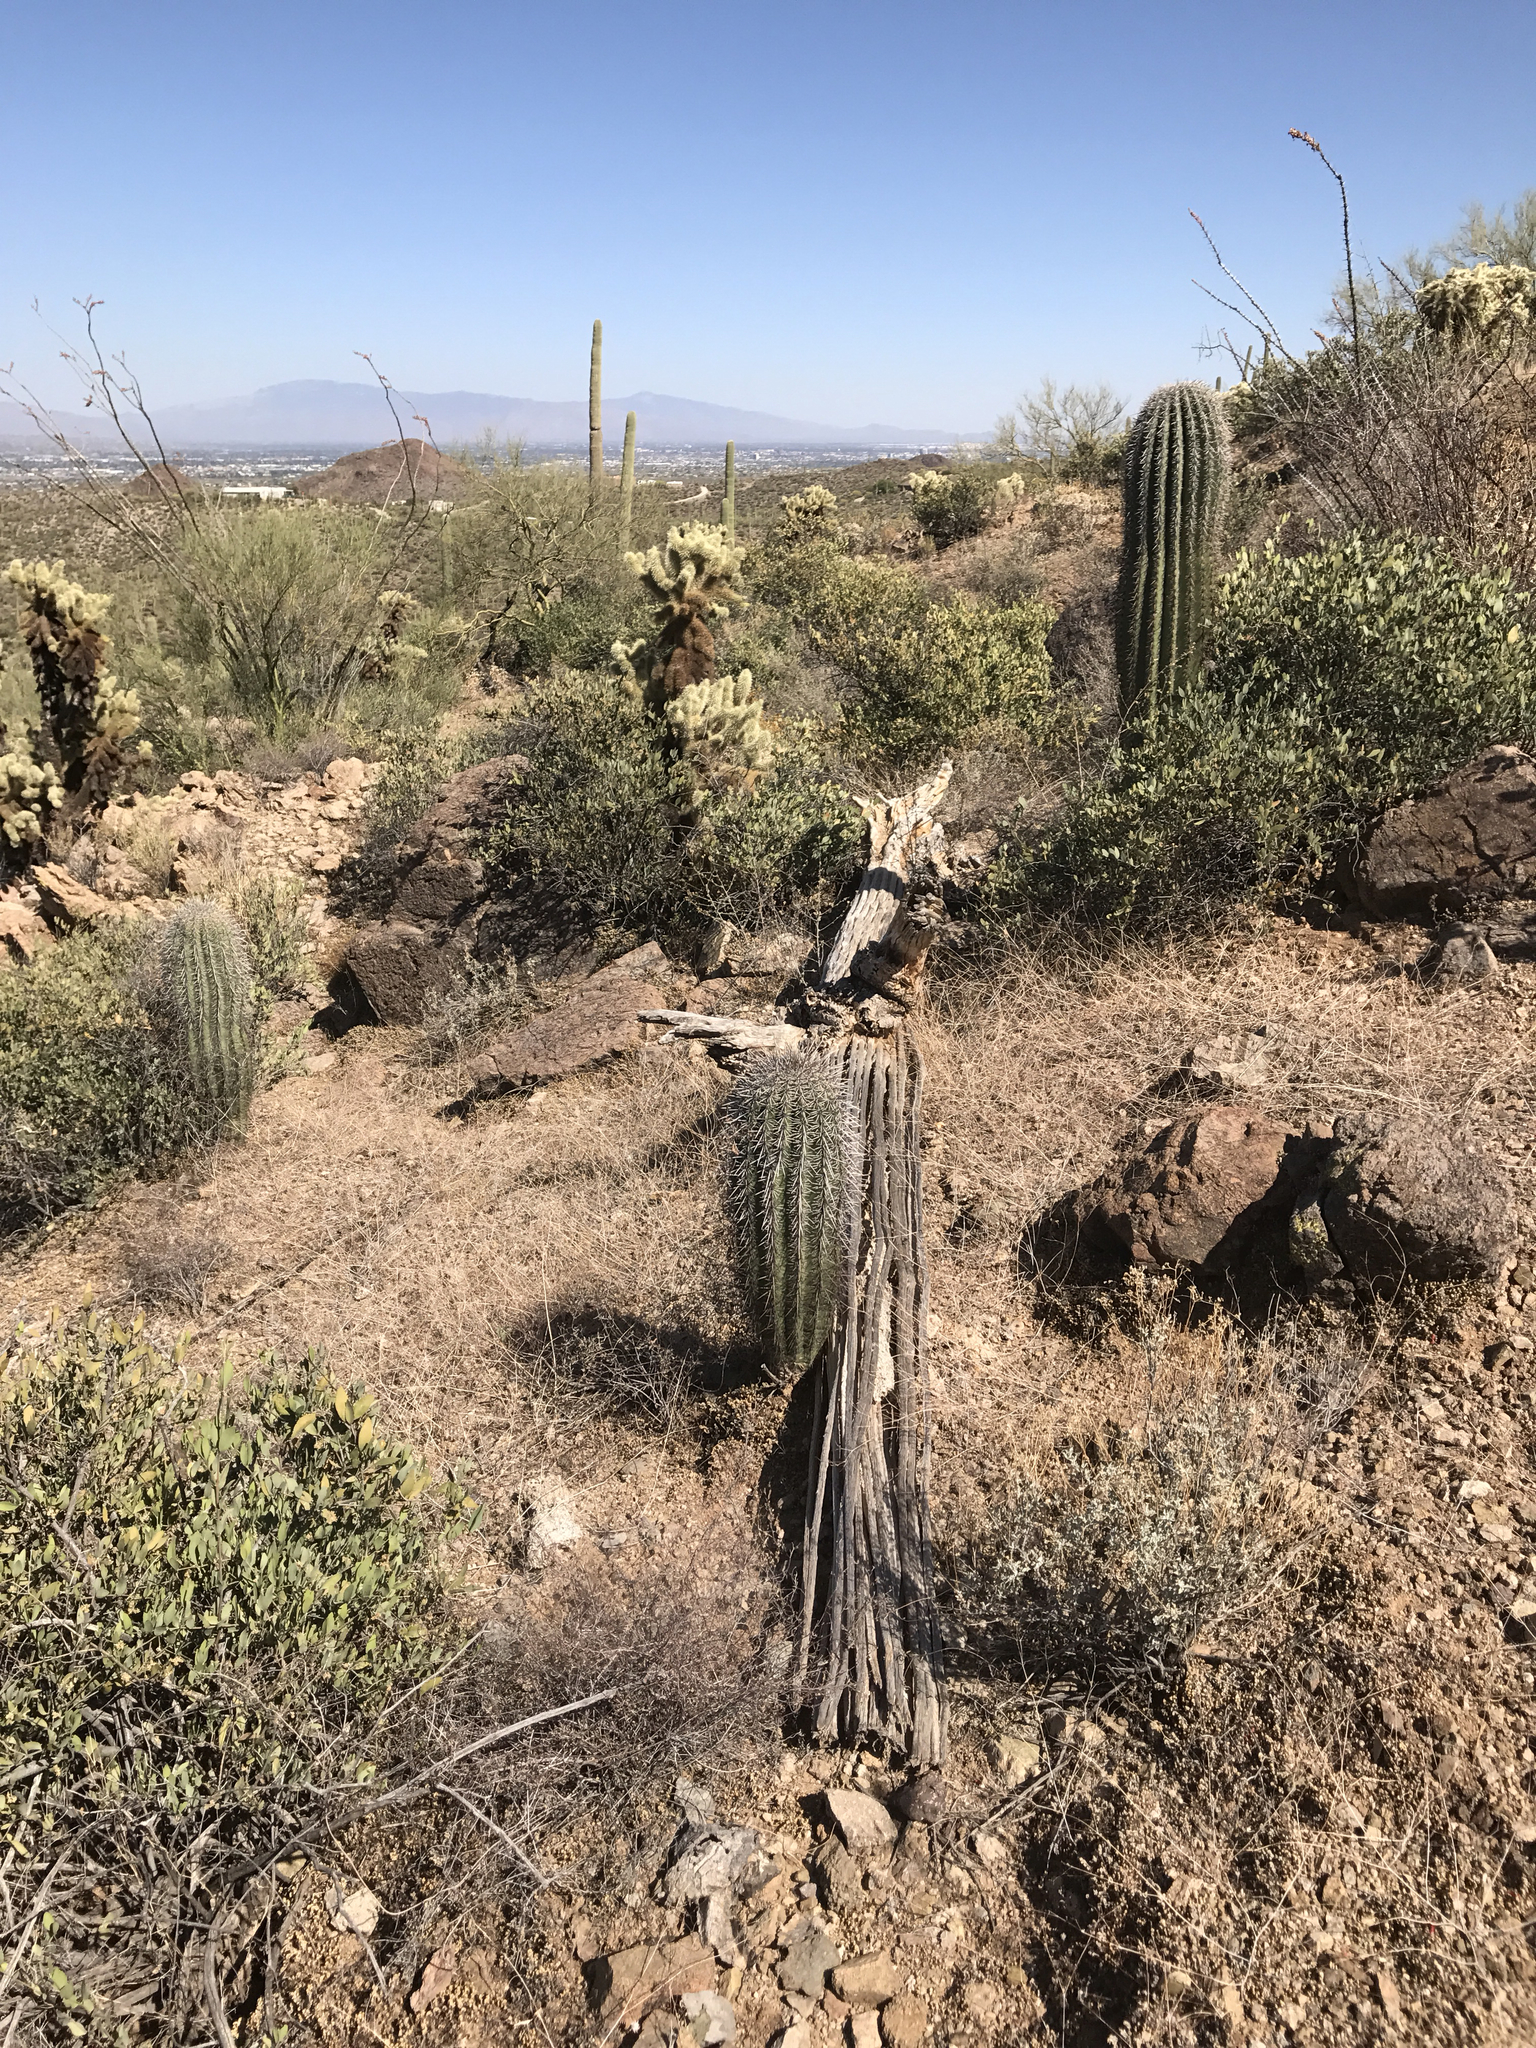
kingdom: Plantae
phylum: Tracheophyta
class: Magnoliopsida
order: Caryophyllales
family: Cactaceae
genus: Carnegiea
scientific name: Carnegiea gigantea
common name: Saguaro
